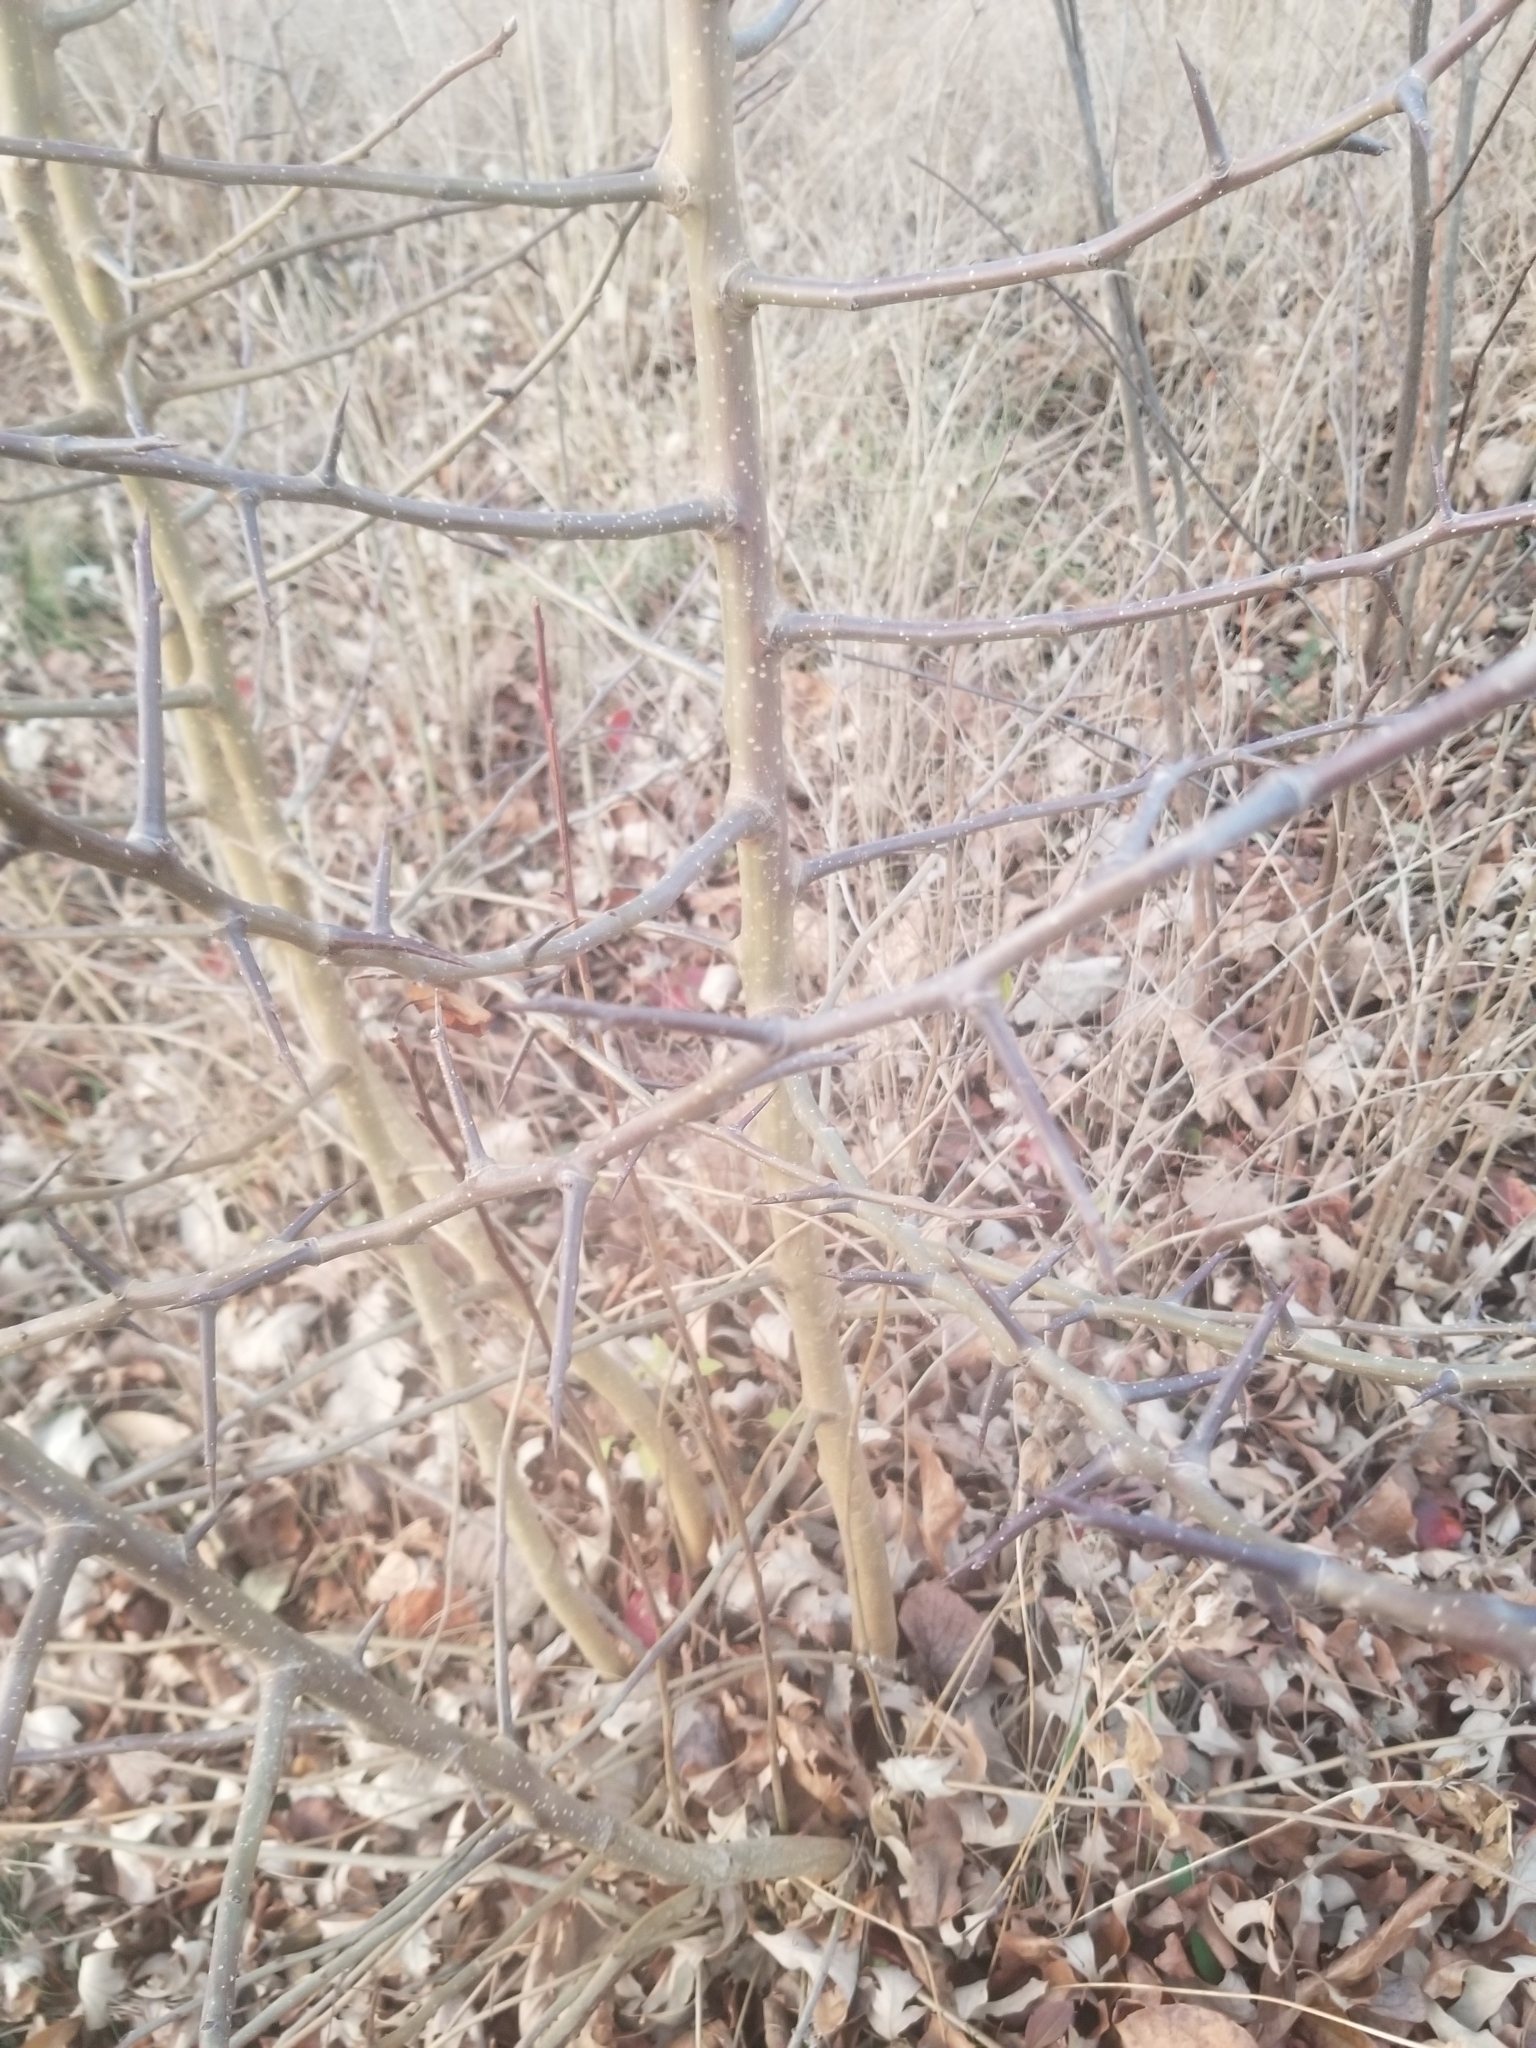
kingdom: Plantae
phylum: Tracheophyta
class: Magnoliopsida
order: Rosales
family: Rosaceae
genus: Pyrus
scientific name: Pyrus calleryana
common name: Callery pear
